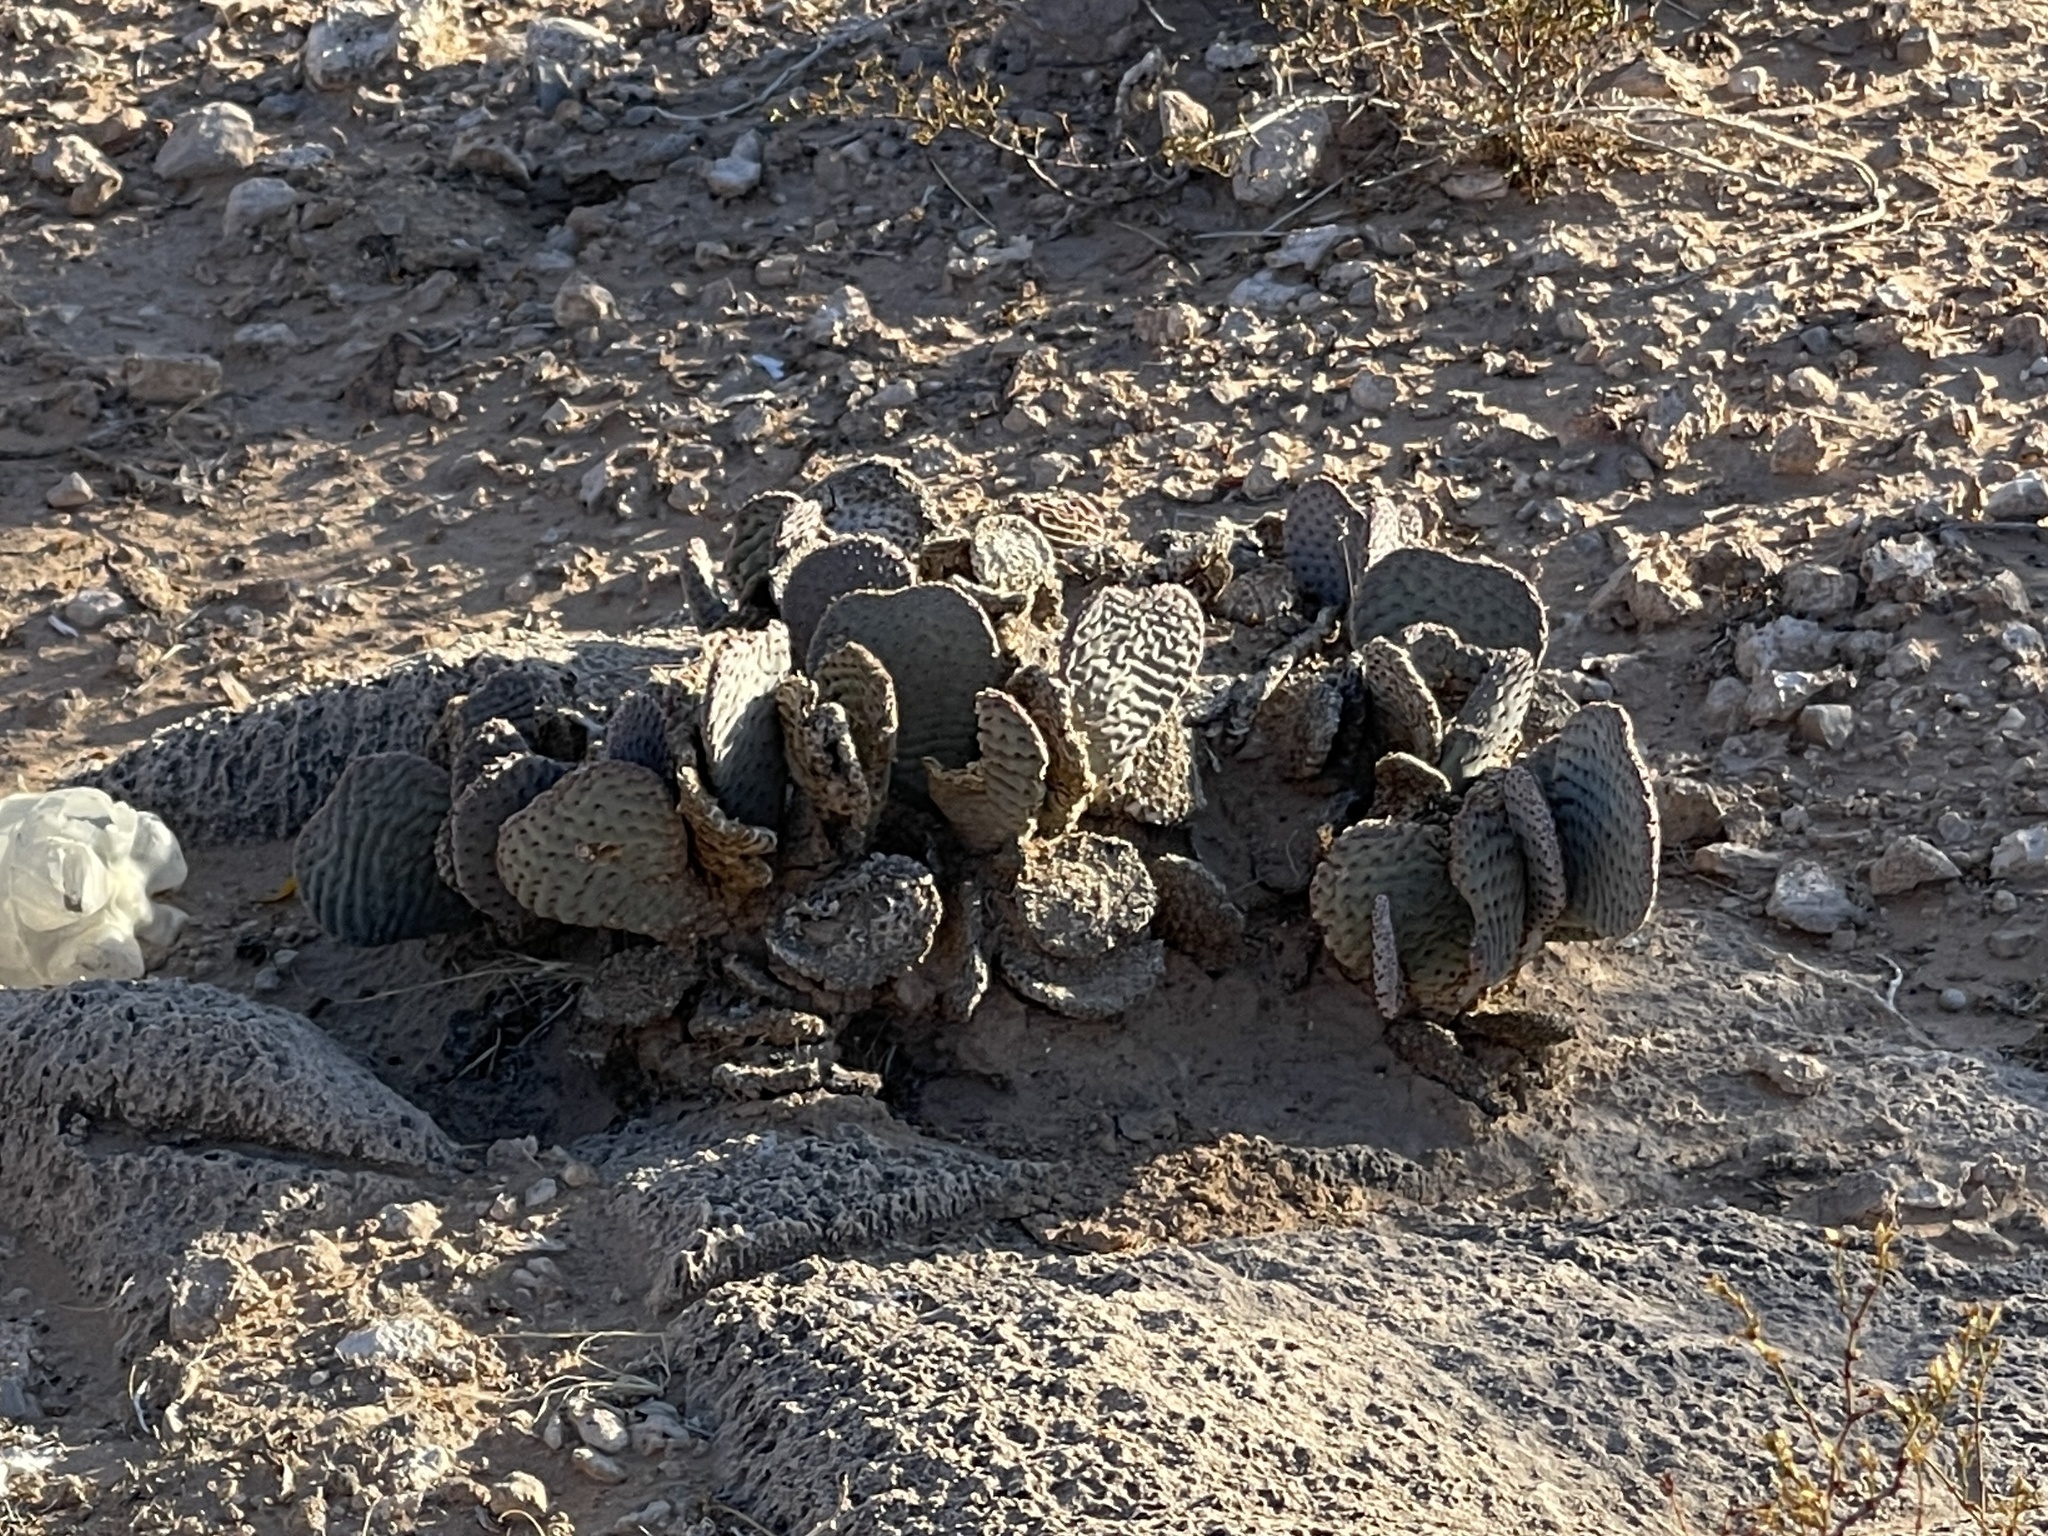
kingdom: Plantae
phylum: Tracheophyta
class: Magnoliopsida
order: Caryophyllales
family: Cactaceae
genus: Opuntia
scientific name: Opuntia basilaris
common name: Beavertail prickly-pear
